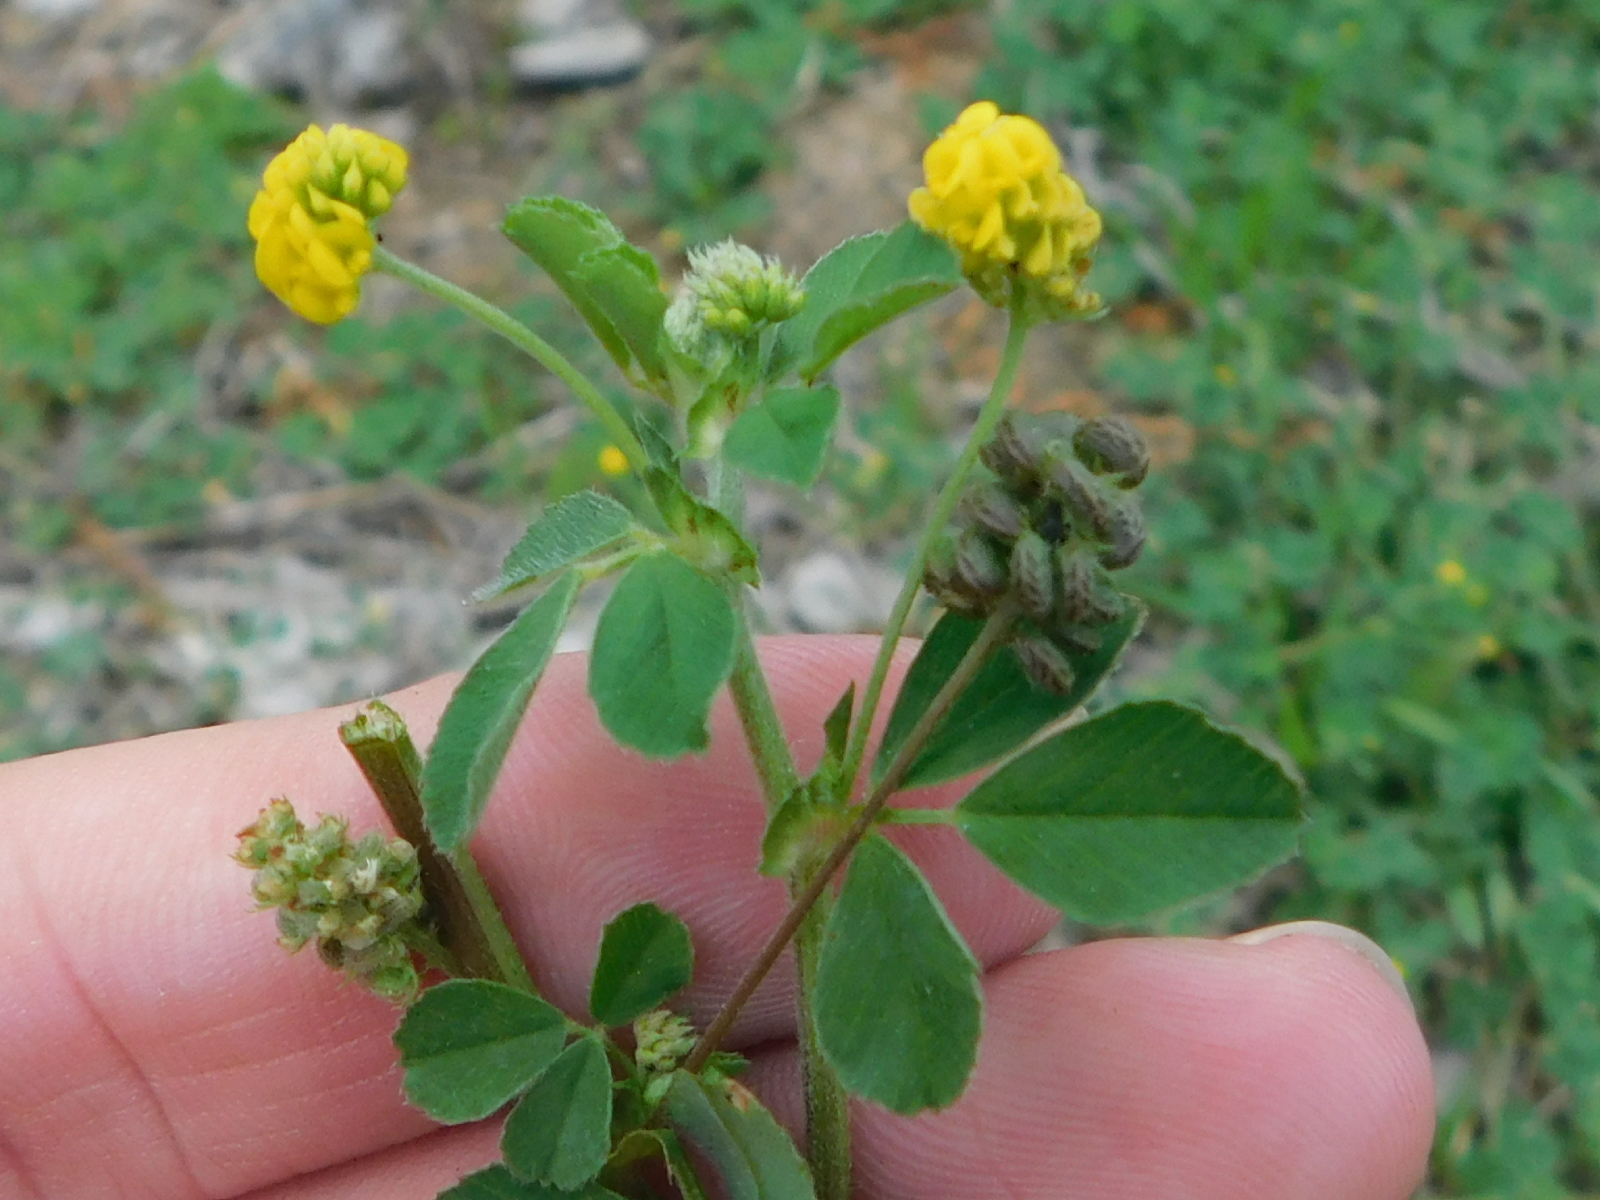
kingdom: Plantae
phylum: Tracheophyta
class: Magnoliopsida
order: Fabales
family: Fabaceae
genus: Medicago
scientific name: Medicago lupulina
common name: Black medick
